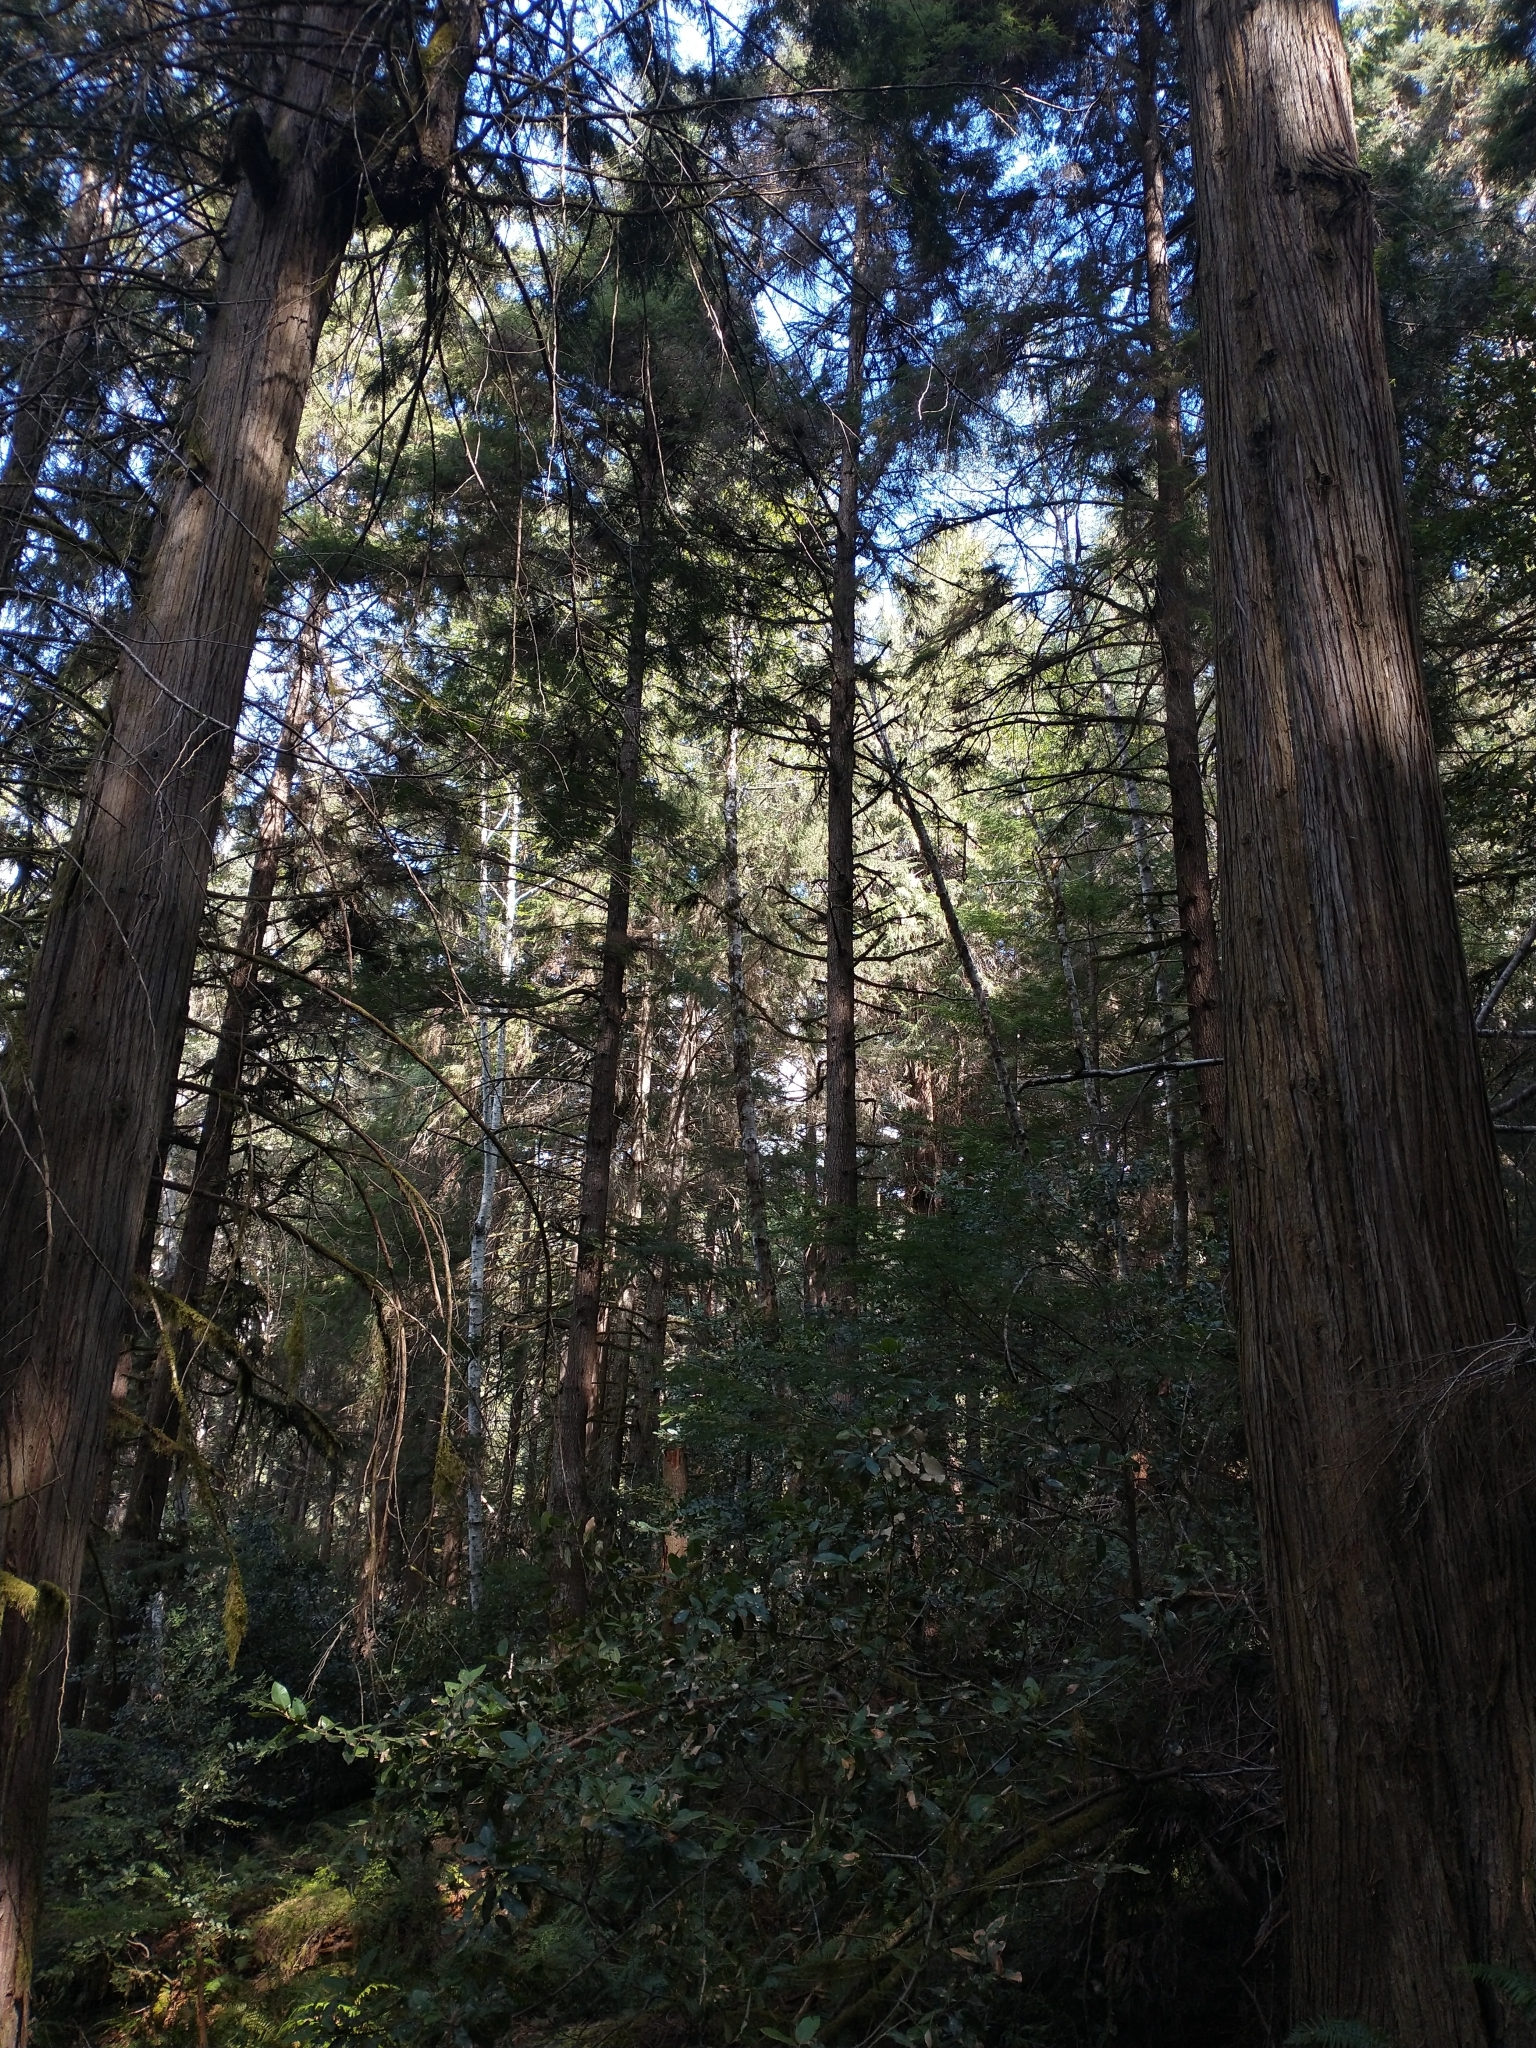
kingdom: Plantae
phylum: Tracheophyta
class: Pinopsida
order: Pinales
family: Cupressaceae
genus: Thuja
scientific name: Thuja plicata
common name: Western red-cedar
